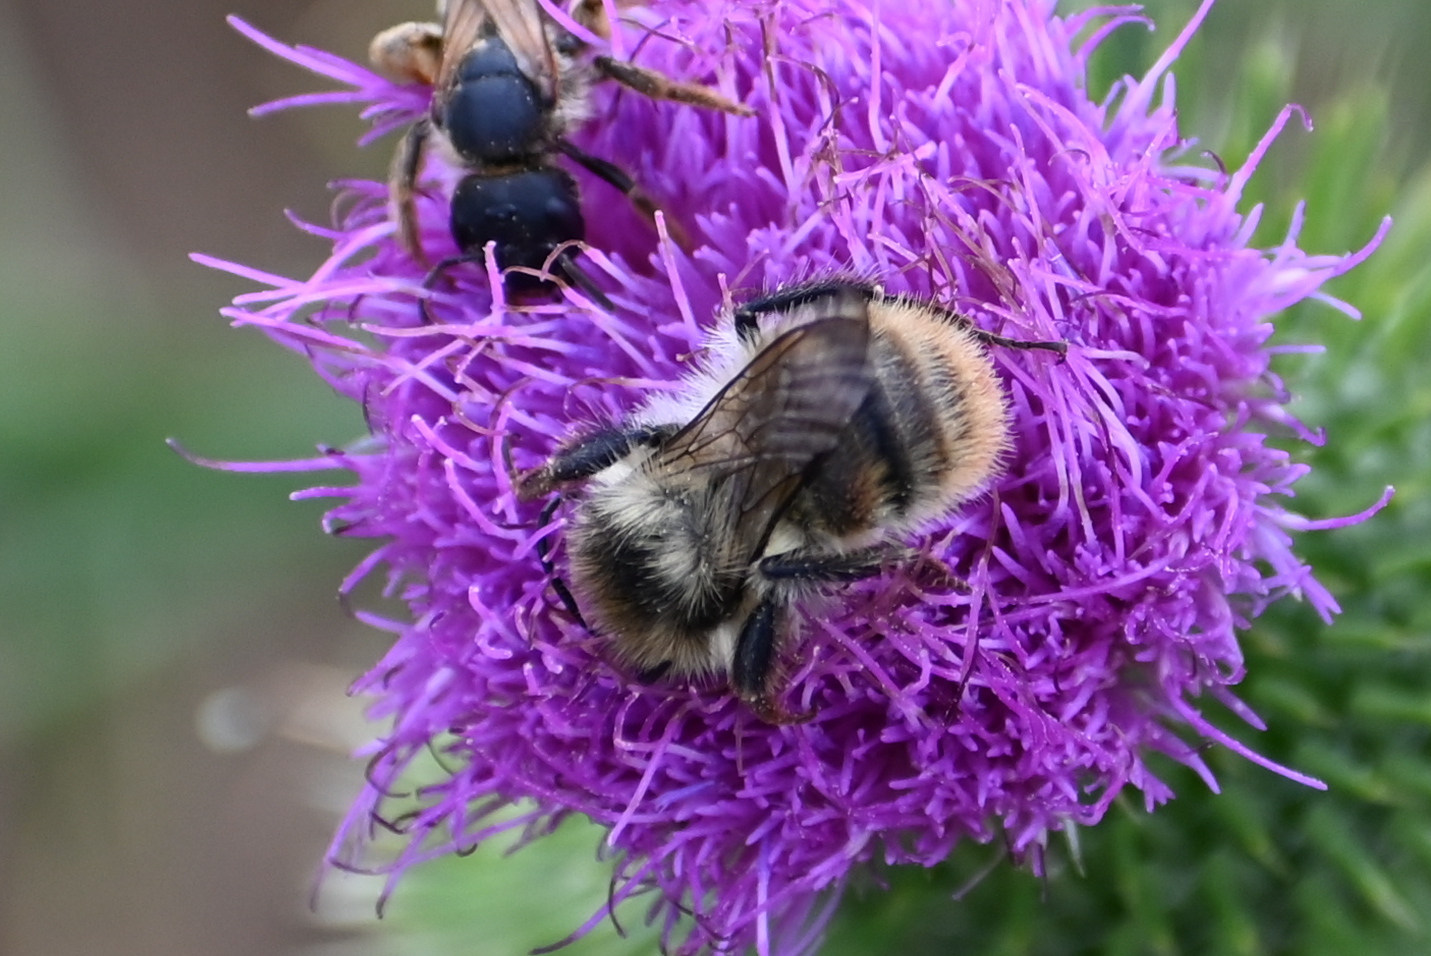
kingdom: Animalia
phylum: Arthropoda
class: Insecta
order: Hymenoptera
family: Apidae
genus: Bombus
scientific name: Bombus sylvarum
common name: Shrill carder bee
